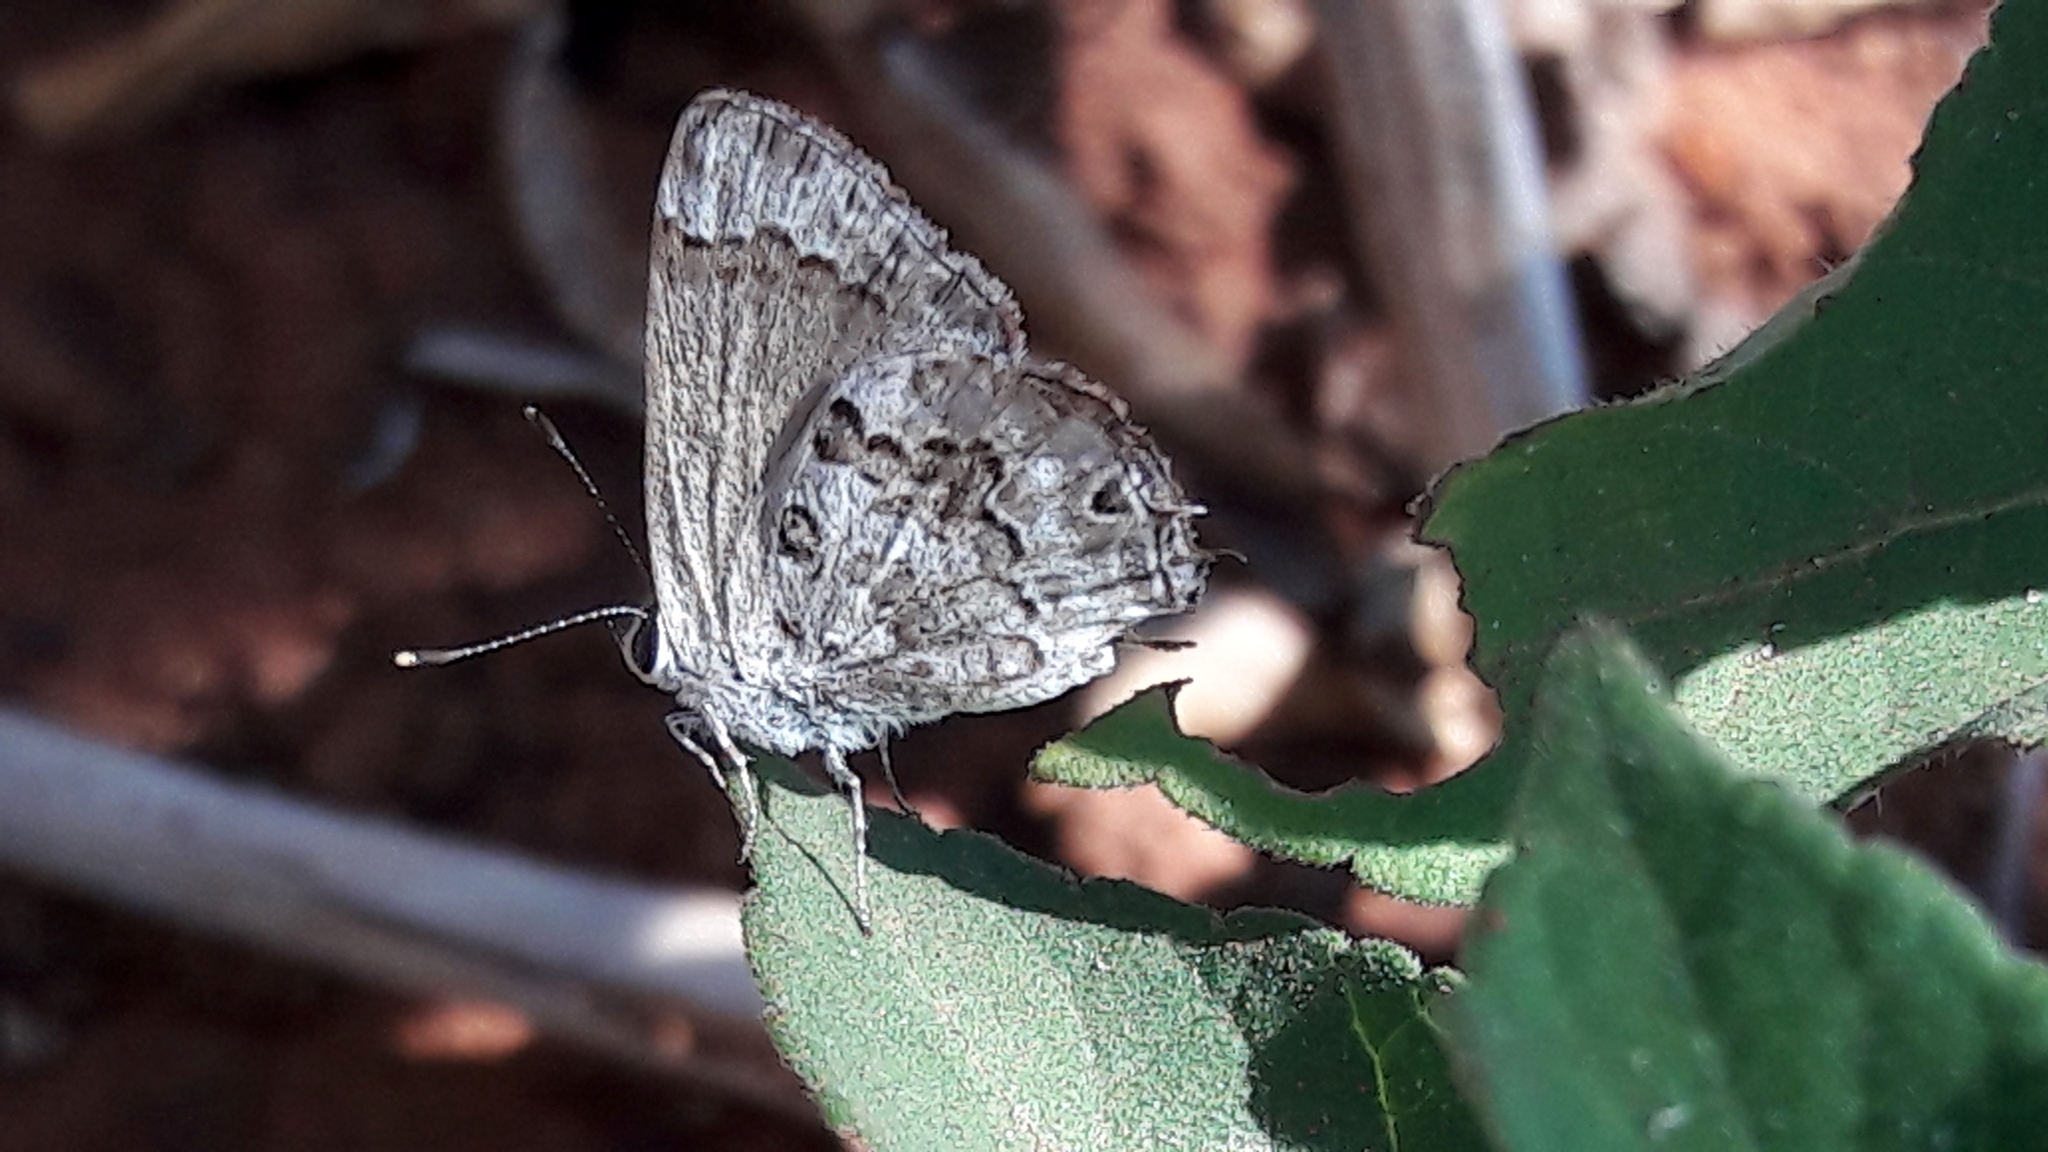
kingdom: Animalia
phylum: Arthropoda
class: Insecta
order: Lepidoptera
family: Lycaenidae
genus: Strymon
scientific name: Strymon astiocha
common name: Gray-spotted scrub-hairstreak
